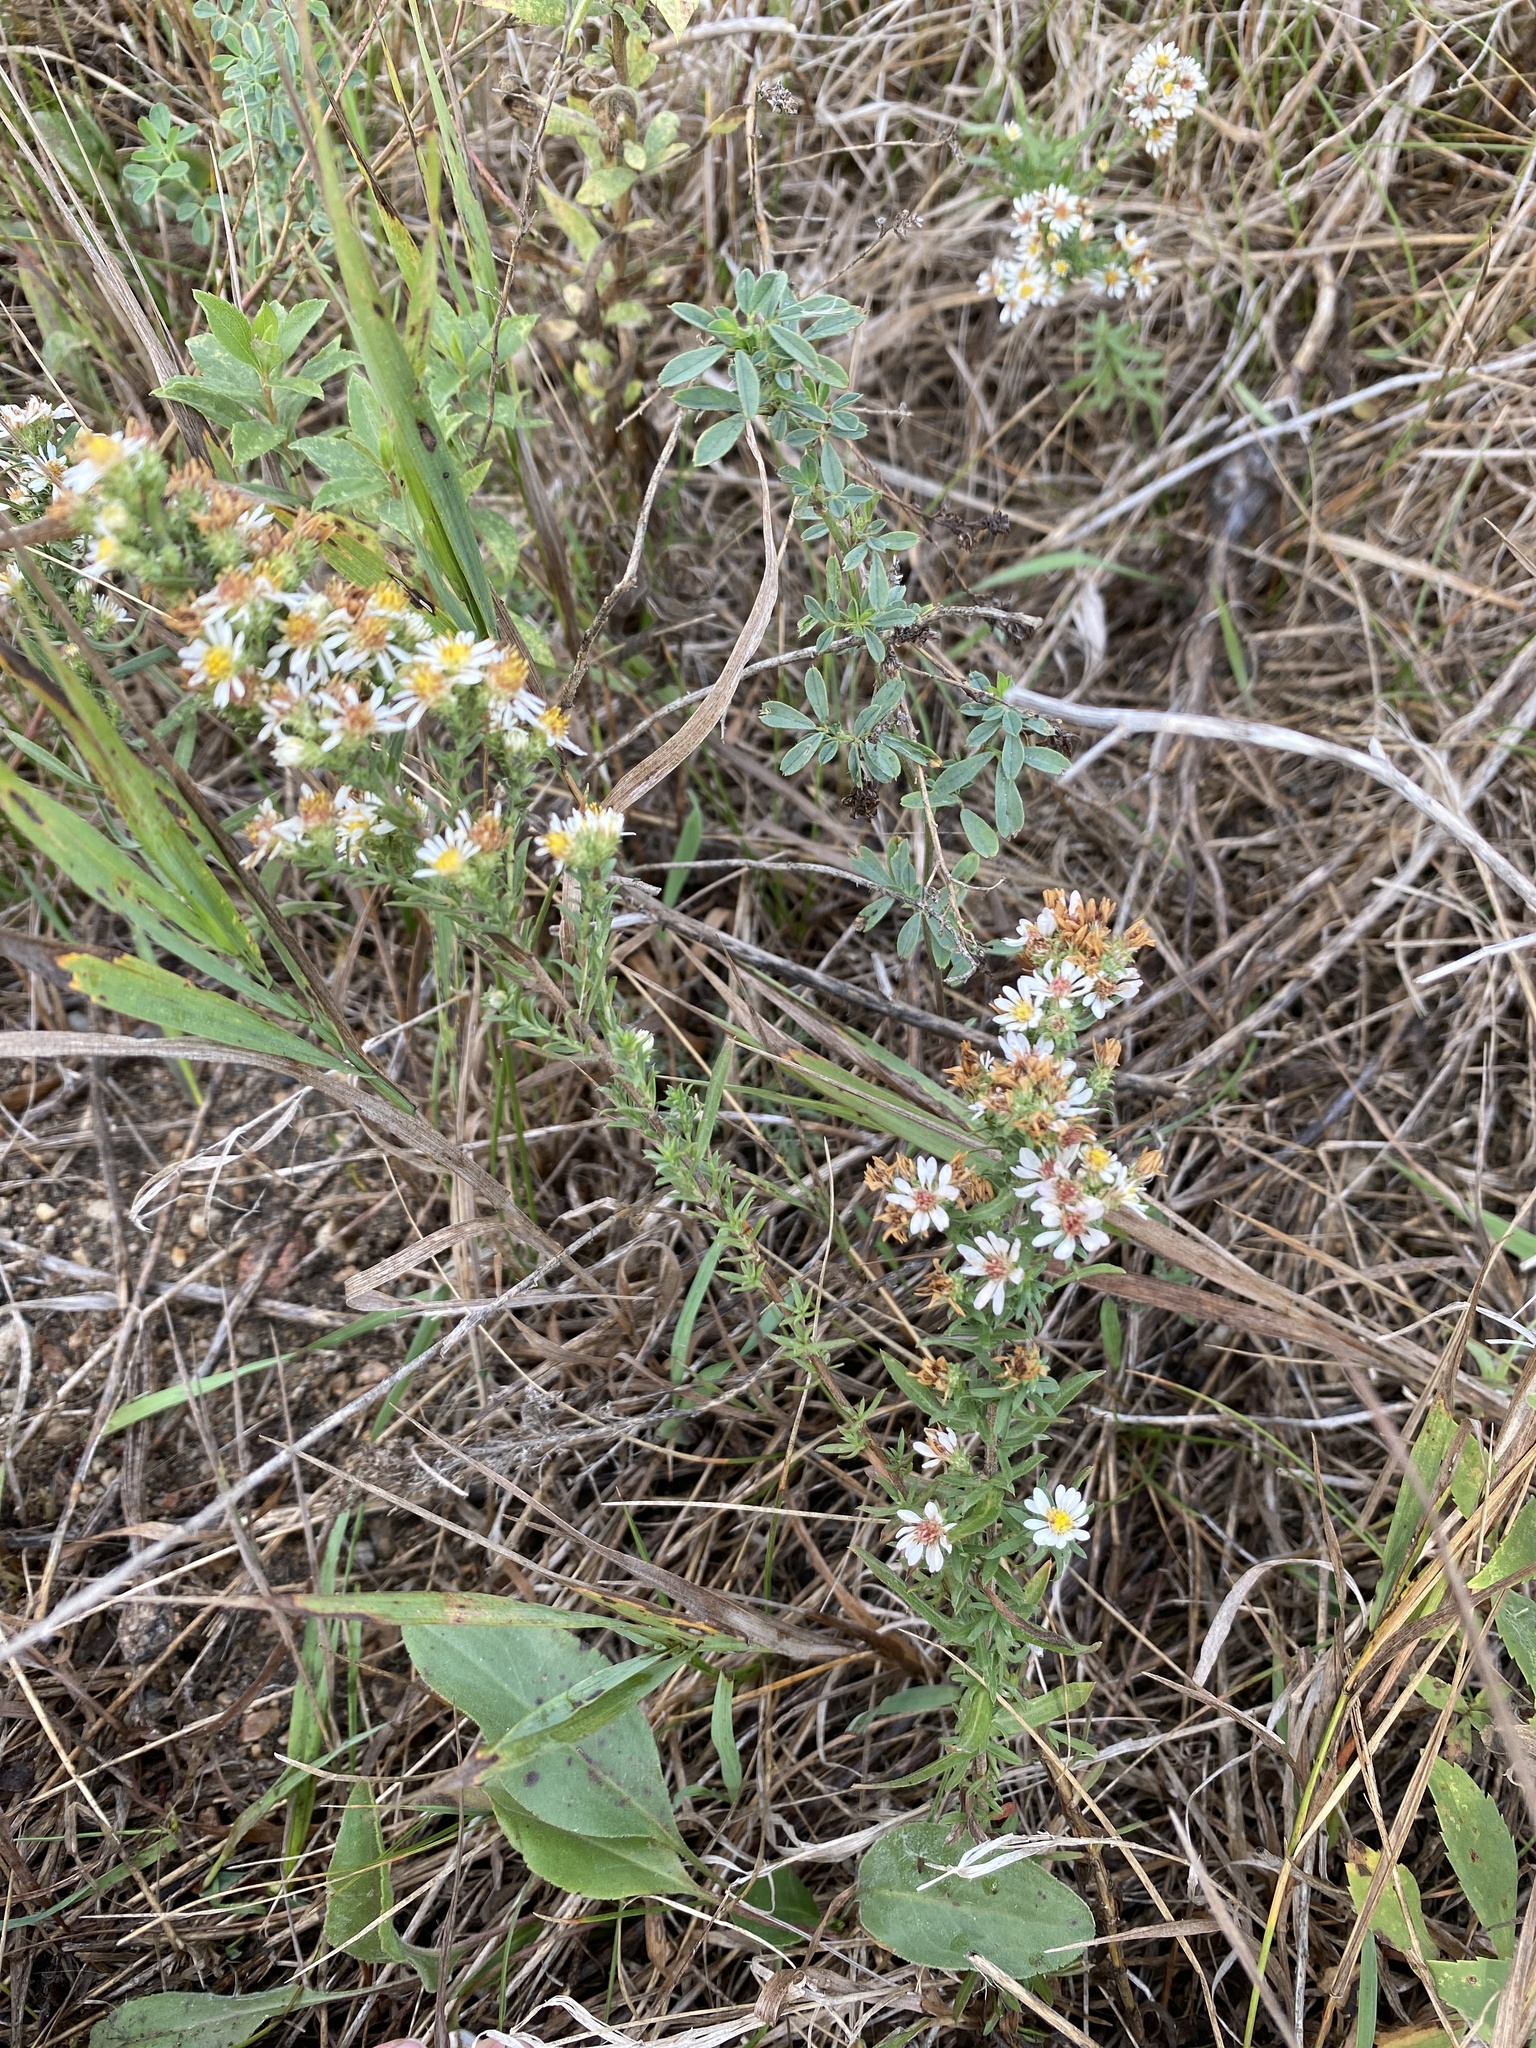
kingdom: Plantae
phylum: Tracheophyta
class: Magnoliopsida
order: Asterales
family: Asteraceae
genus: Symphyotrichum
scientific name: Symphyotrichum ericoides
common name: Heath aster
